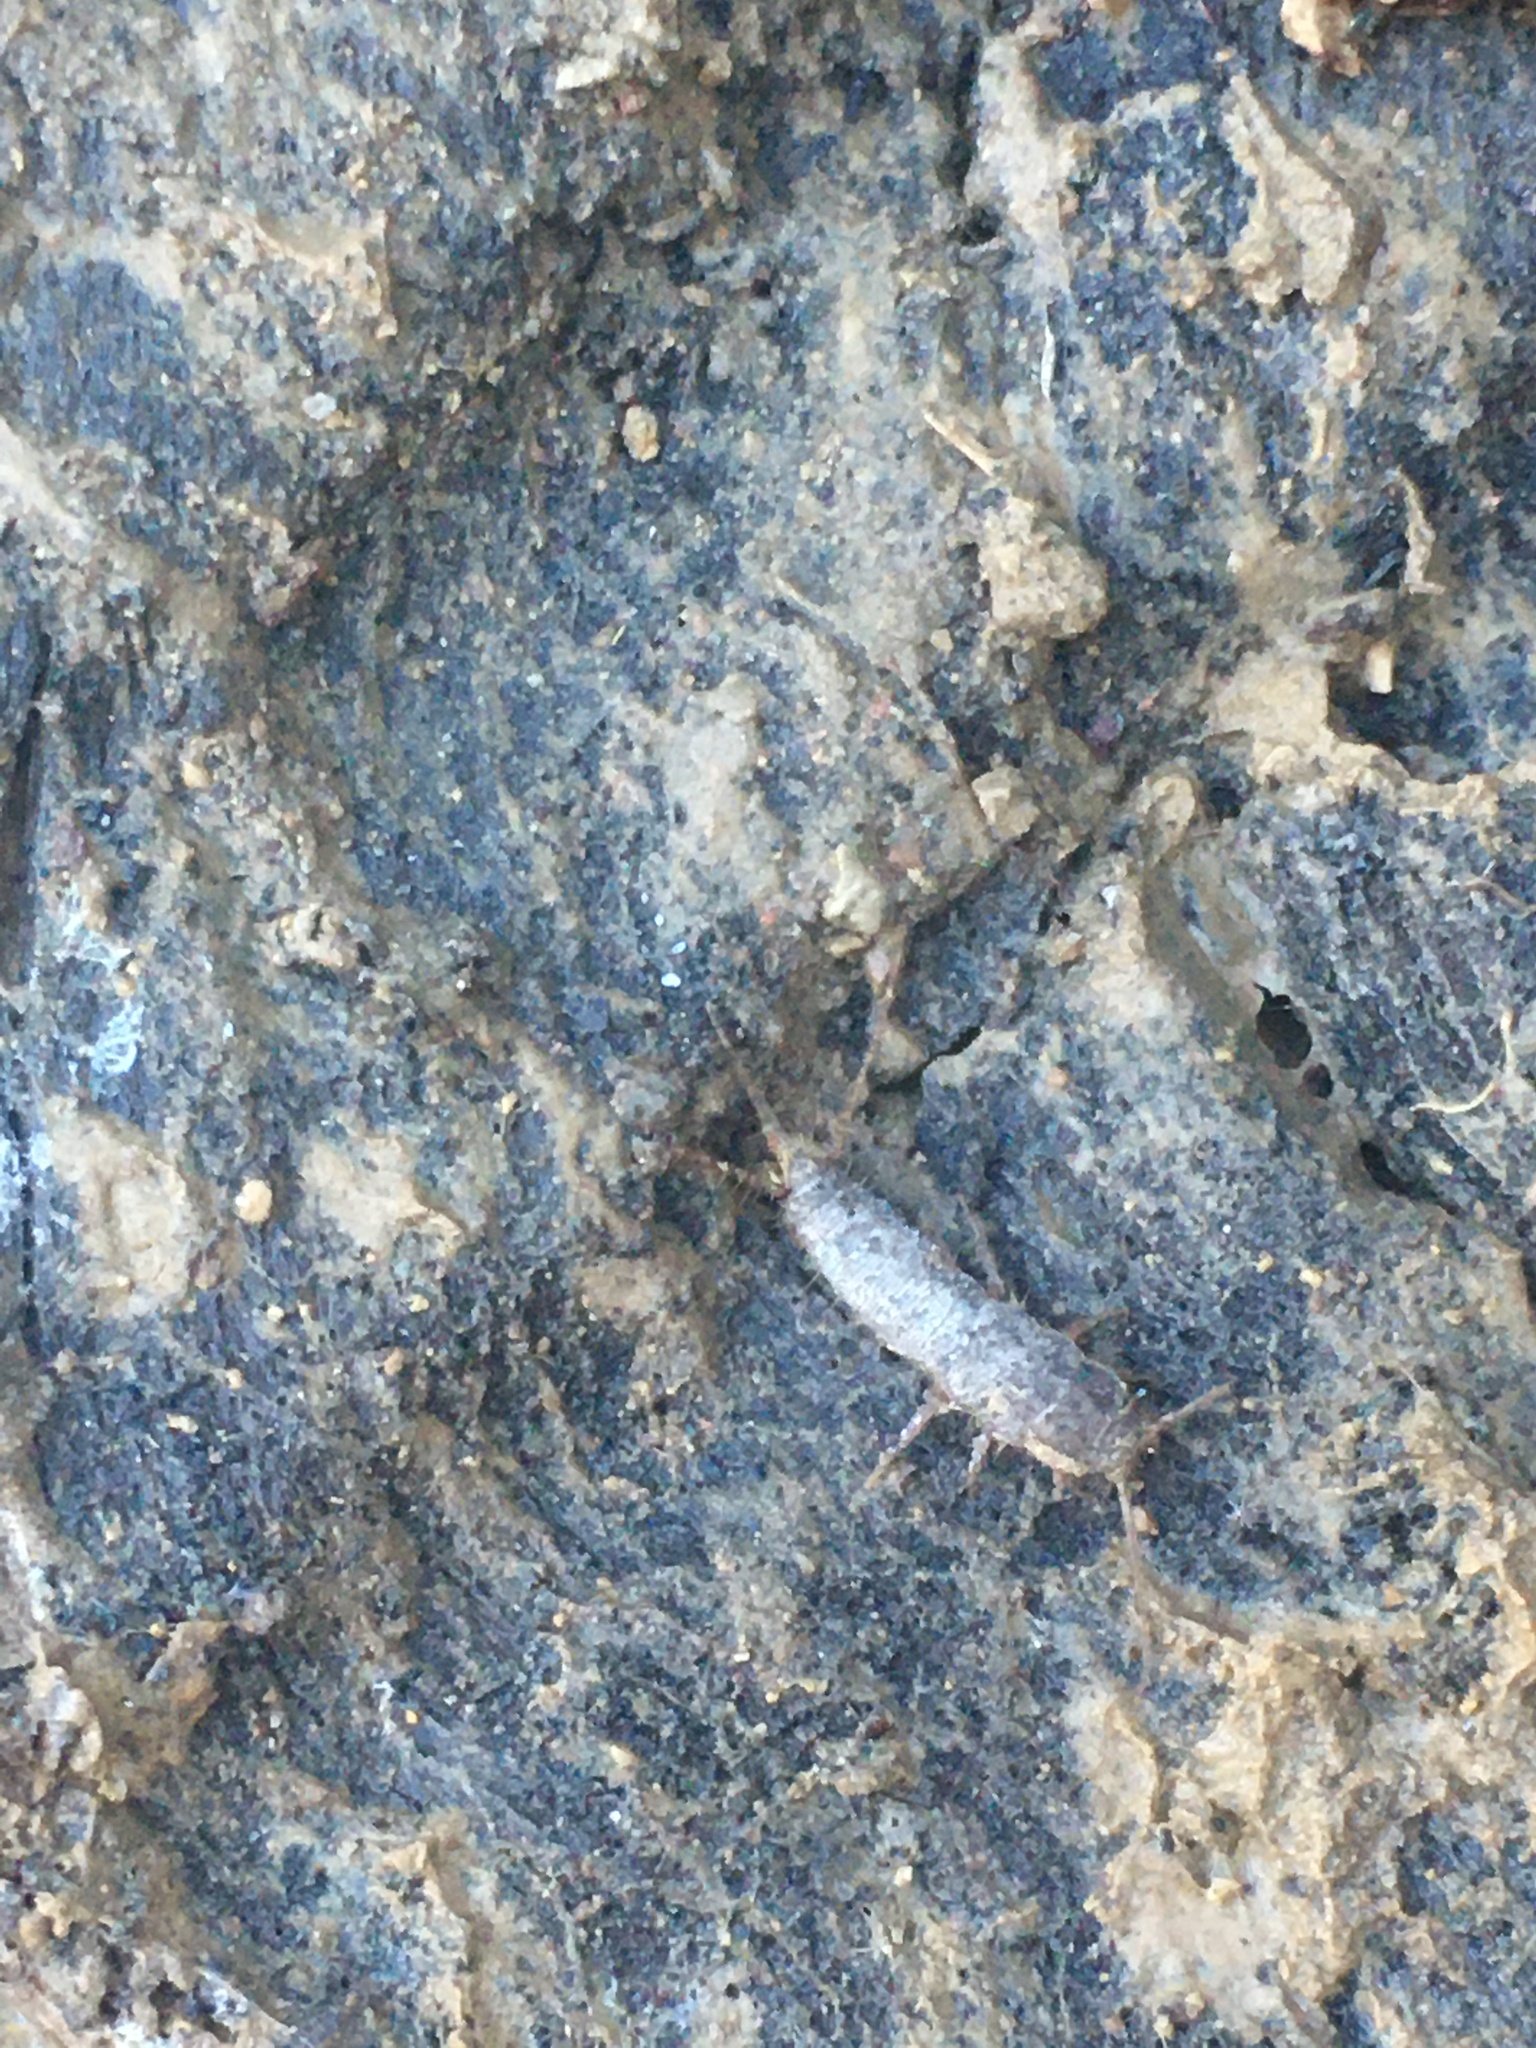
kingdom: Animalia
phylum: Arthropoda
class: Insecta
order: Zygentoma
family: Lepismatidae
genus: Allacrotelsa
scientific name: Allacrotelsa spinulata
